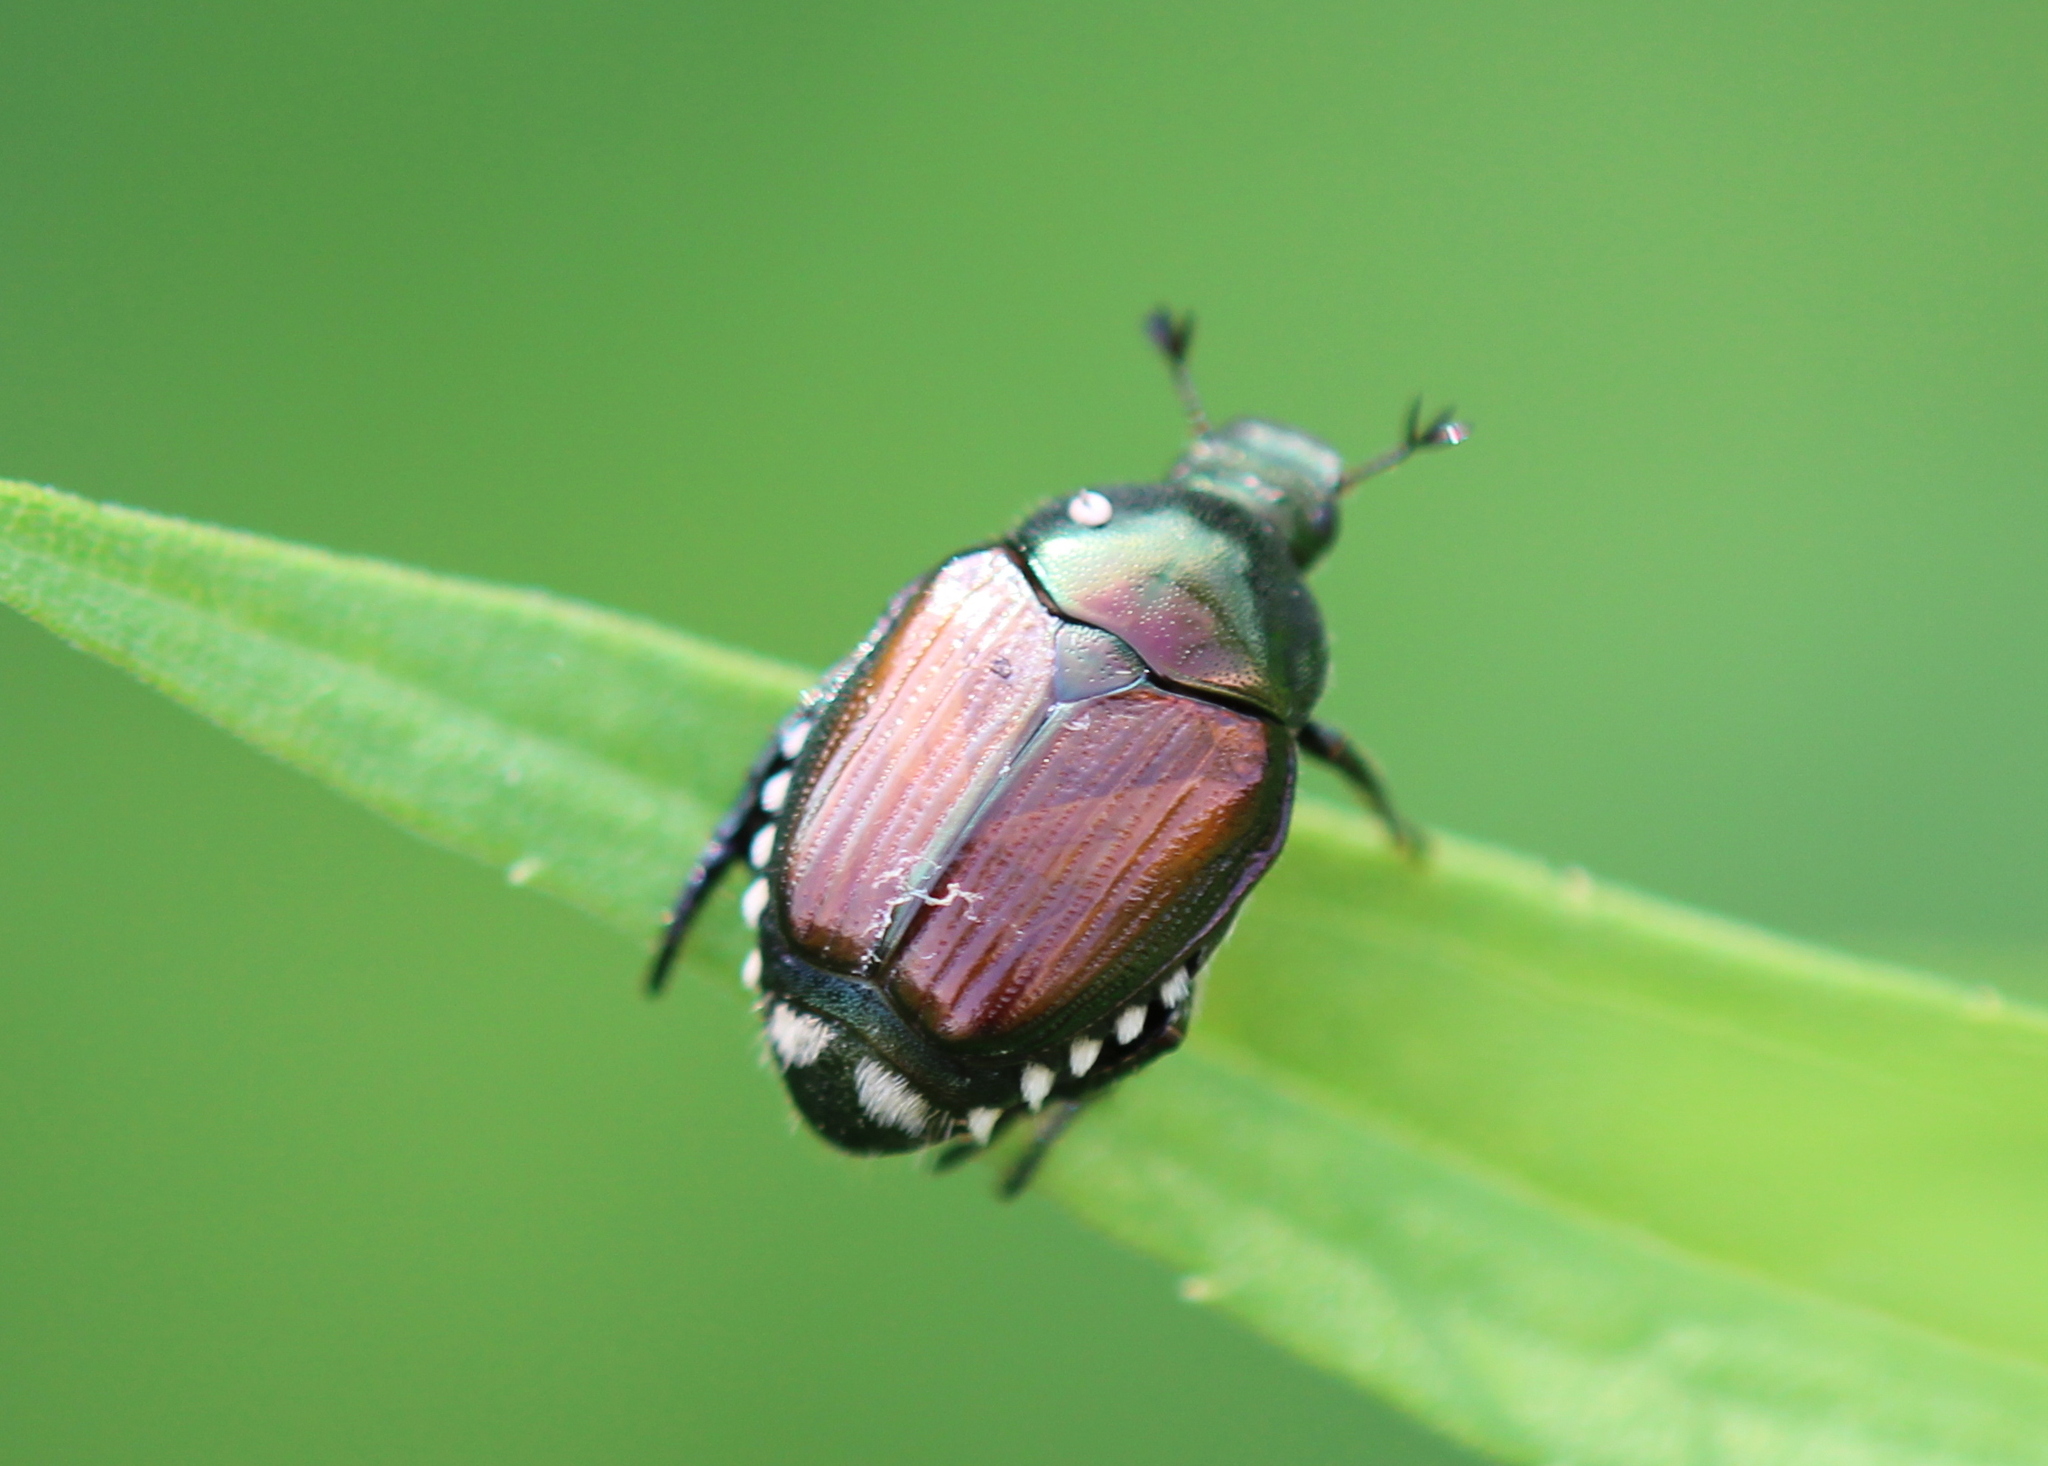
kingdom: Animalia
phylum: Arthropoda
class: Insecta
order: Diptera
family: Tachinidae
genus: Istocheta
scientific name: Istocheta aldrichi
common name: Parasitic wasp
